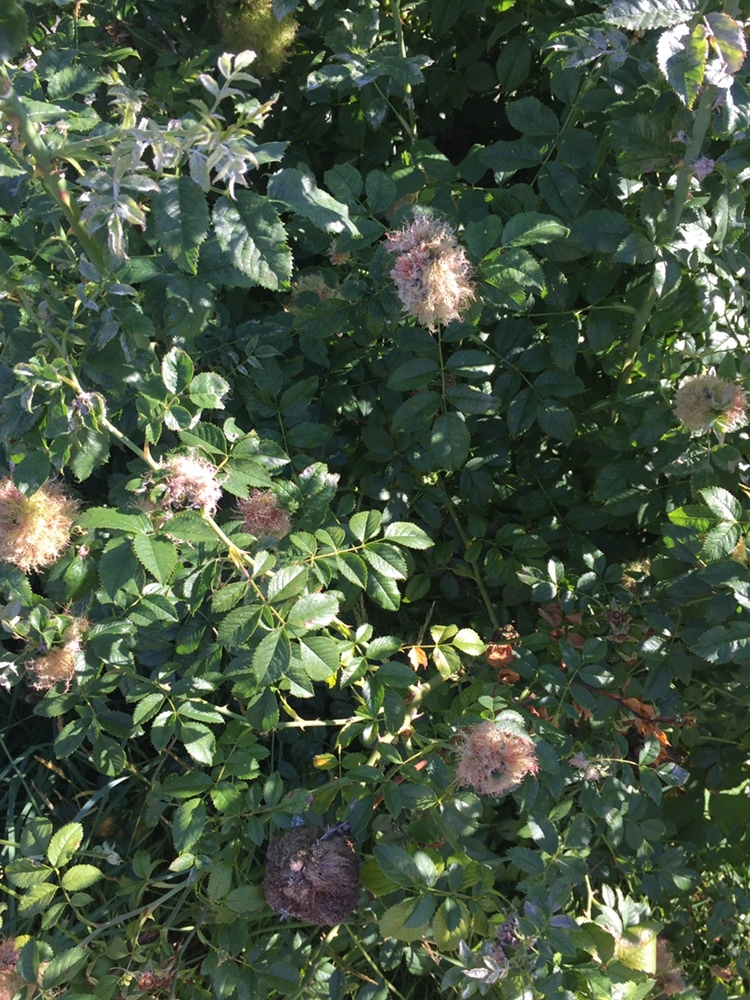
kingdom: Animalia
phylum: Arthropoda
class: Insecta
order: Hymenoptera
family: Cynipidae
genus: Diplolepis
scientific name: Diplolepis rosae
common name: Bedeguar gall
